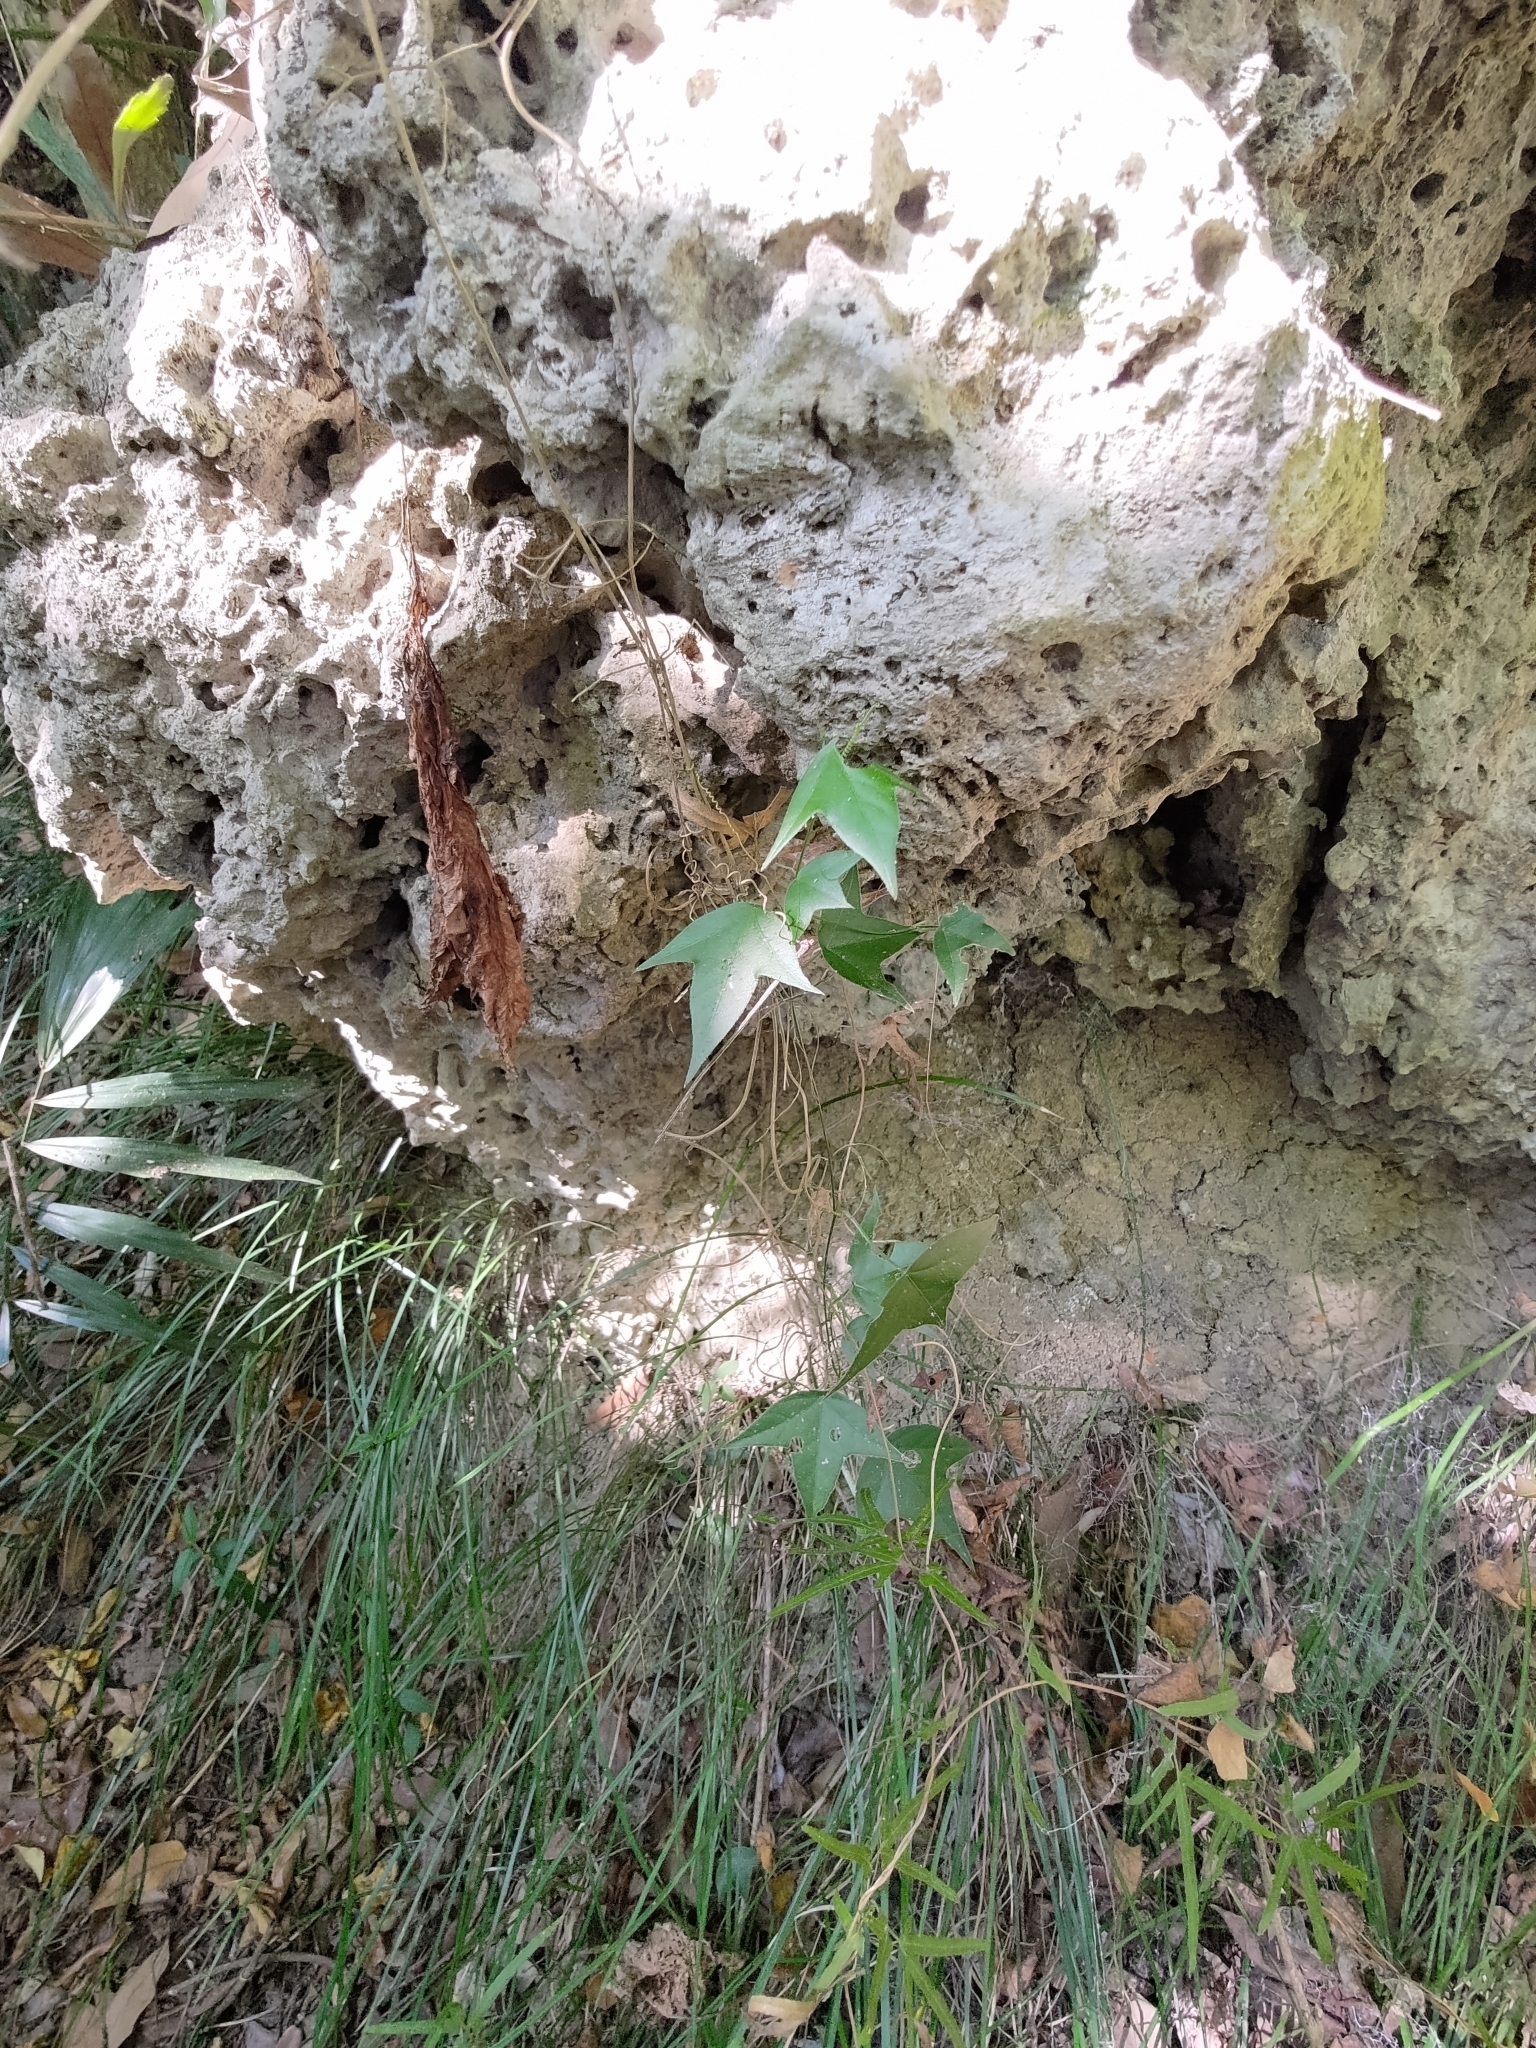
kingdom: Plantae
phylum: Tracheophyta
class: Magnoliopsida
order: Malpighiales
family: Passifloraceae
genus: Passiflora
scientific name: Passiflora suberosa
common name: Wild passionfruit
